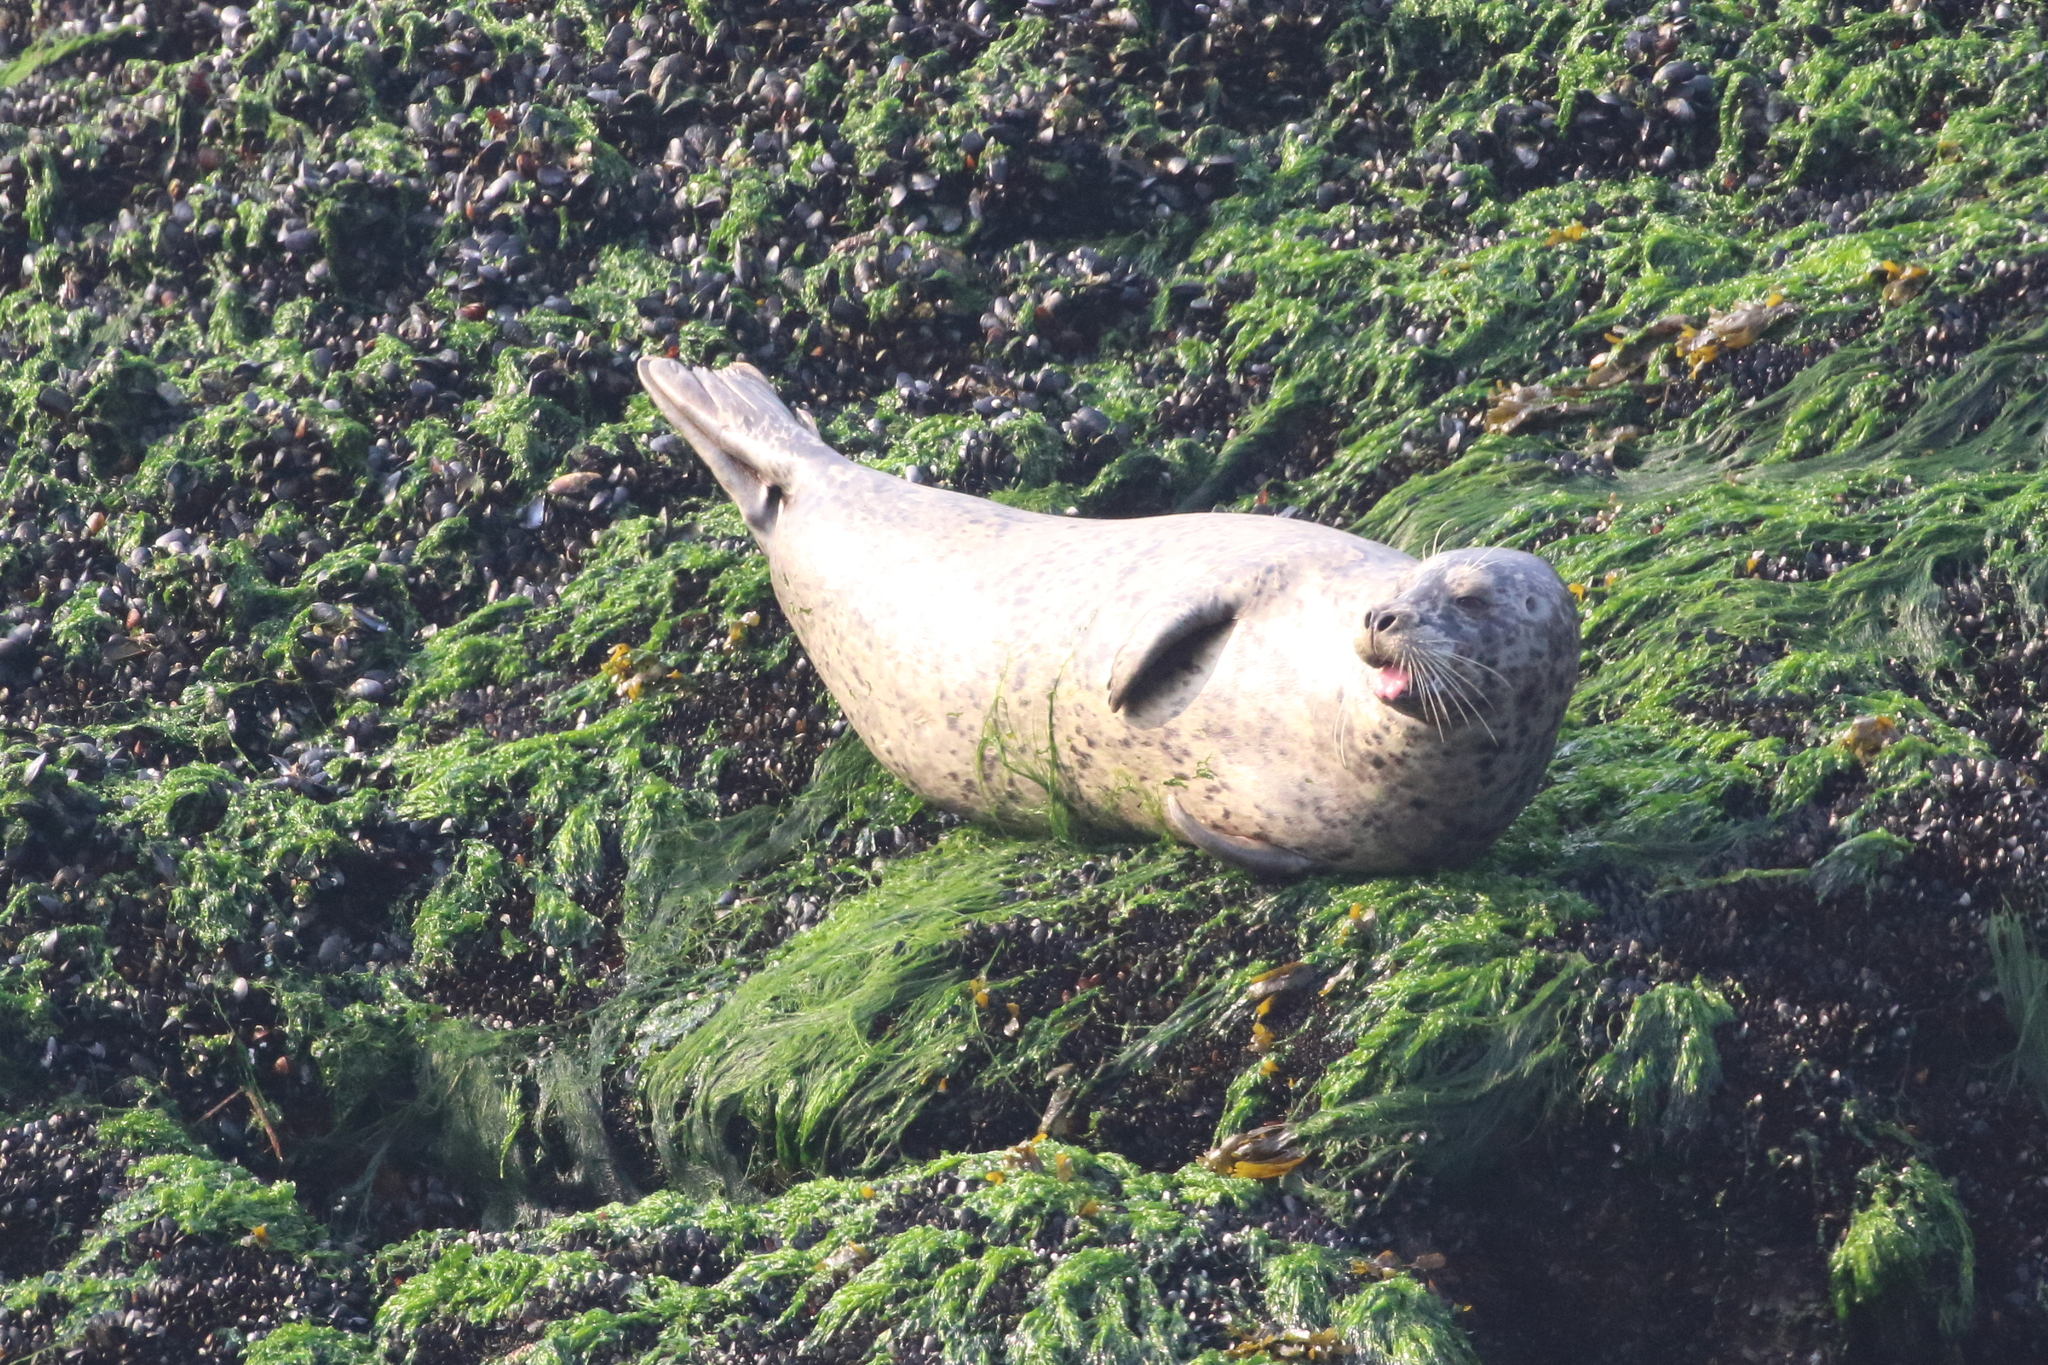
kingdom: Animalia
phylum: Chordata
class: Mammalia
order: Carnivora
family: Phocidae
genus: Phoca
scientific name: Phoca vitulina
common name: Harbor seal
